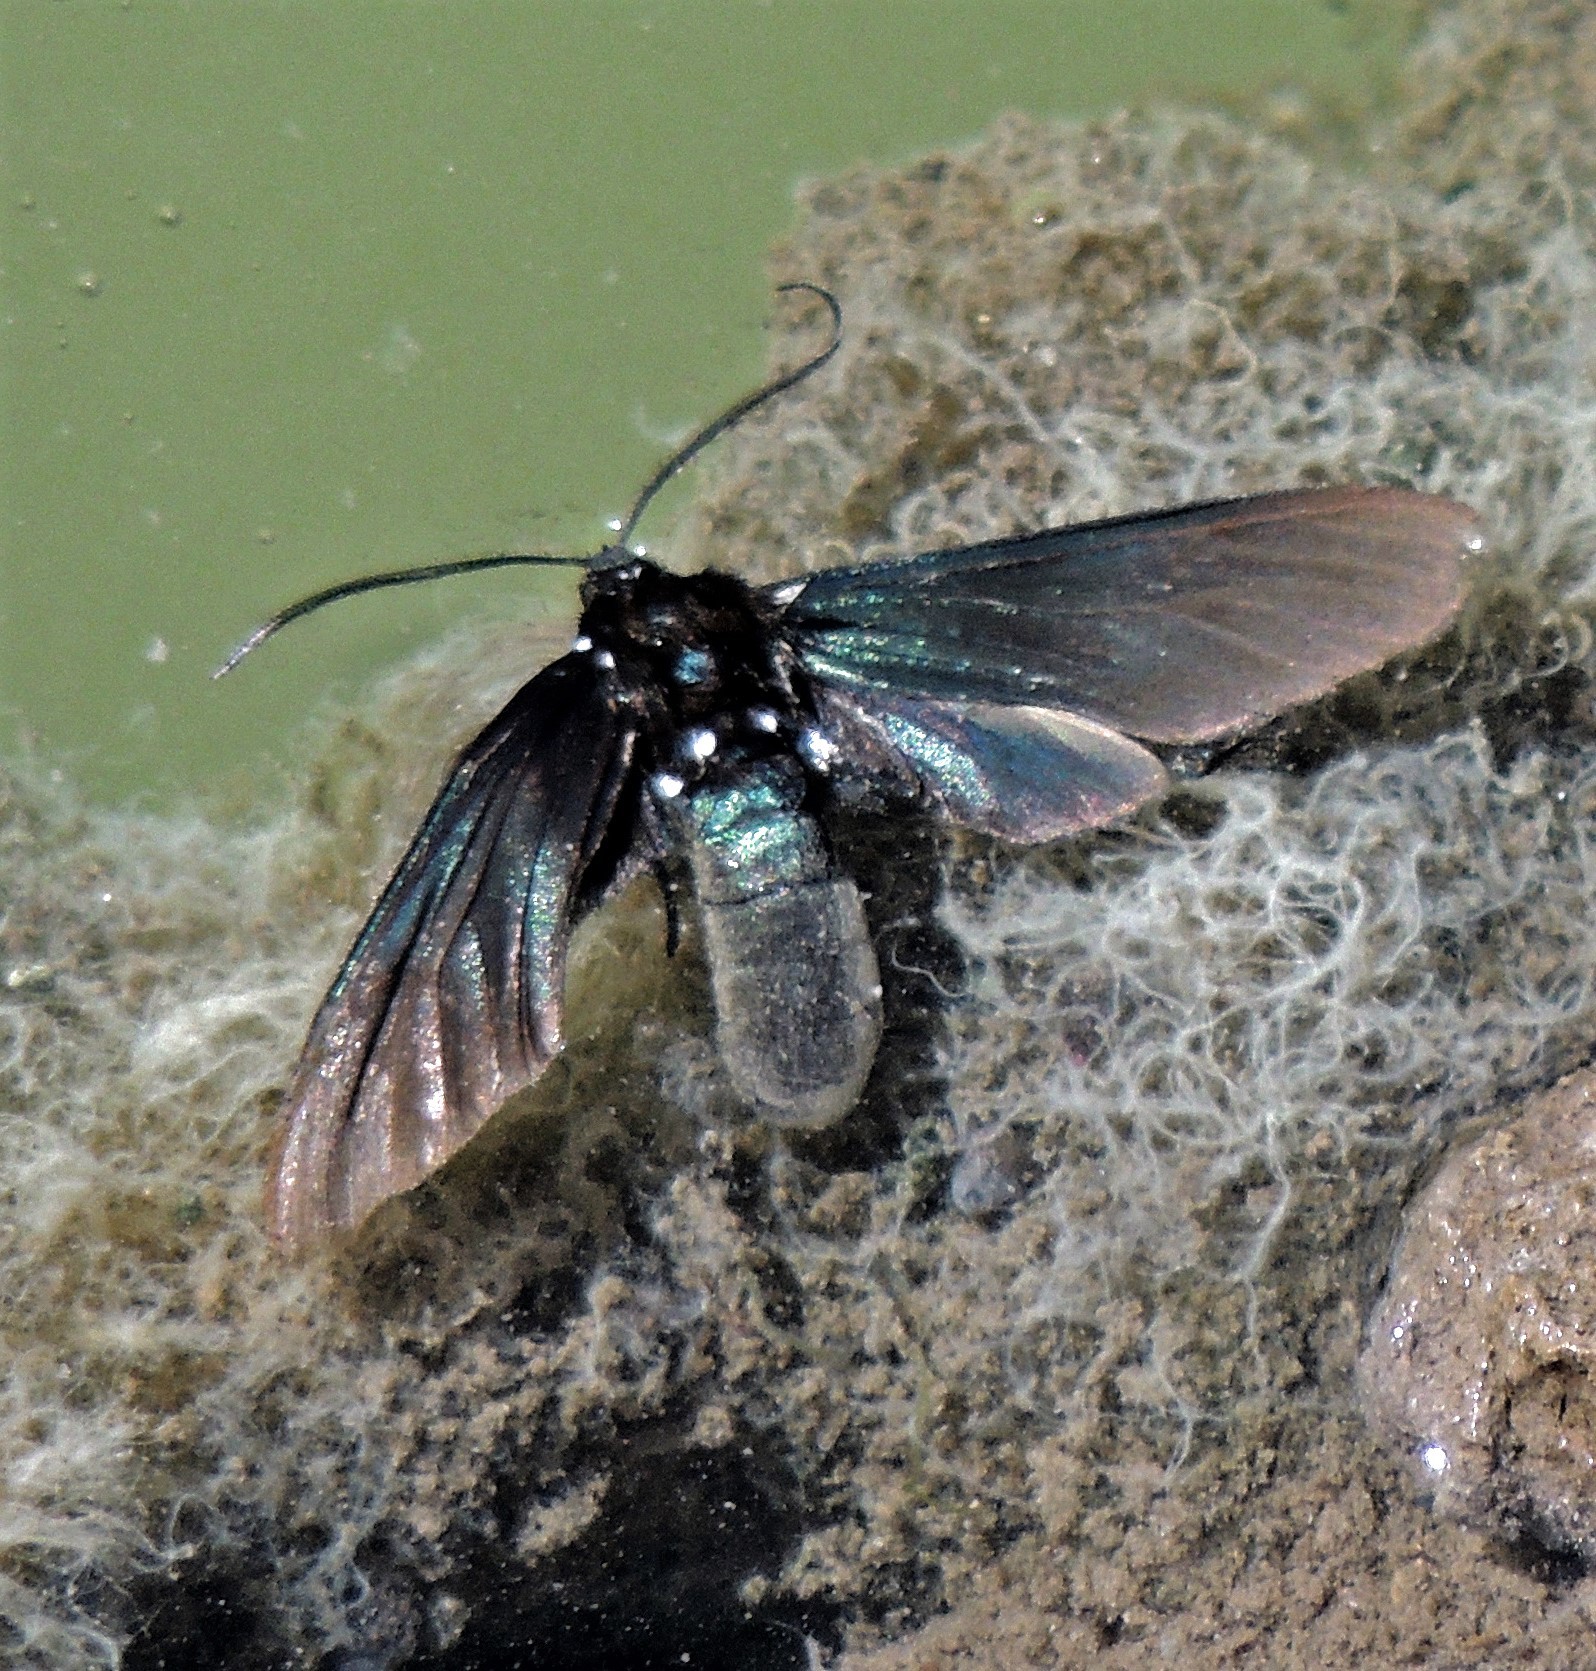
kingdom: Animalia
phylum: Arthropoda
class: Insecta
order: Lepidoptera
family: Erebidae
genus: Macrocneme
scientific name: Macrocneme
